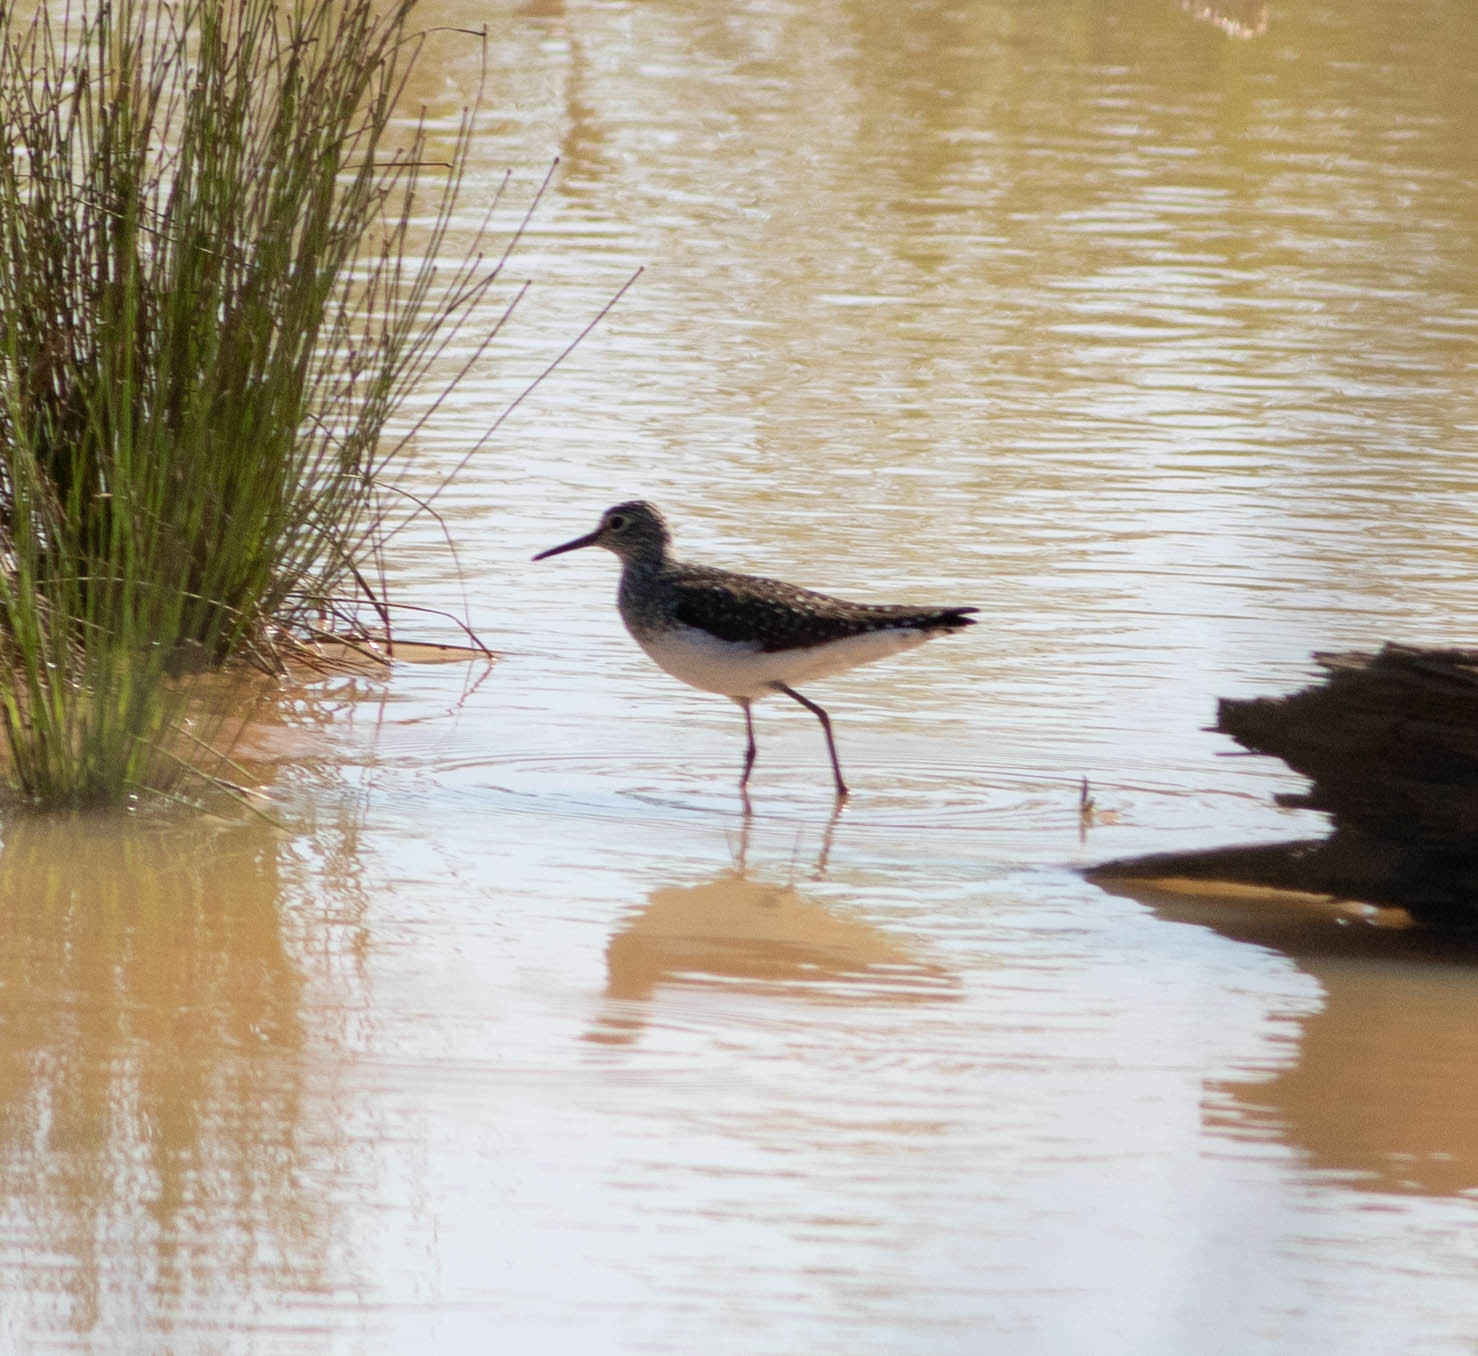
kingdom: Animalia
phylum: Chordata
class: Aves
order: Charadriiformes
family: Scolopacidae
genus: Tringa
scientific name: Tringa solitaria
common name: Solitary sandpiper
